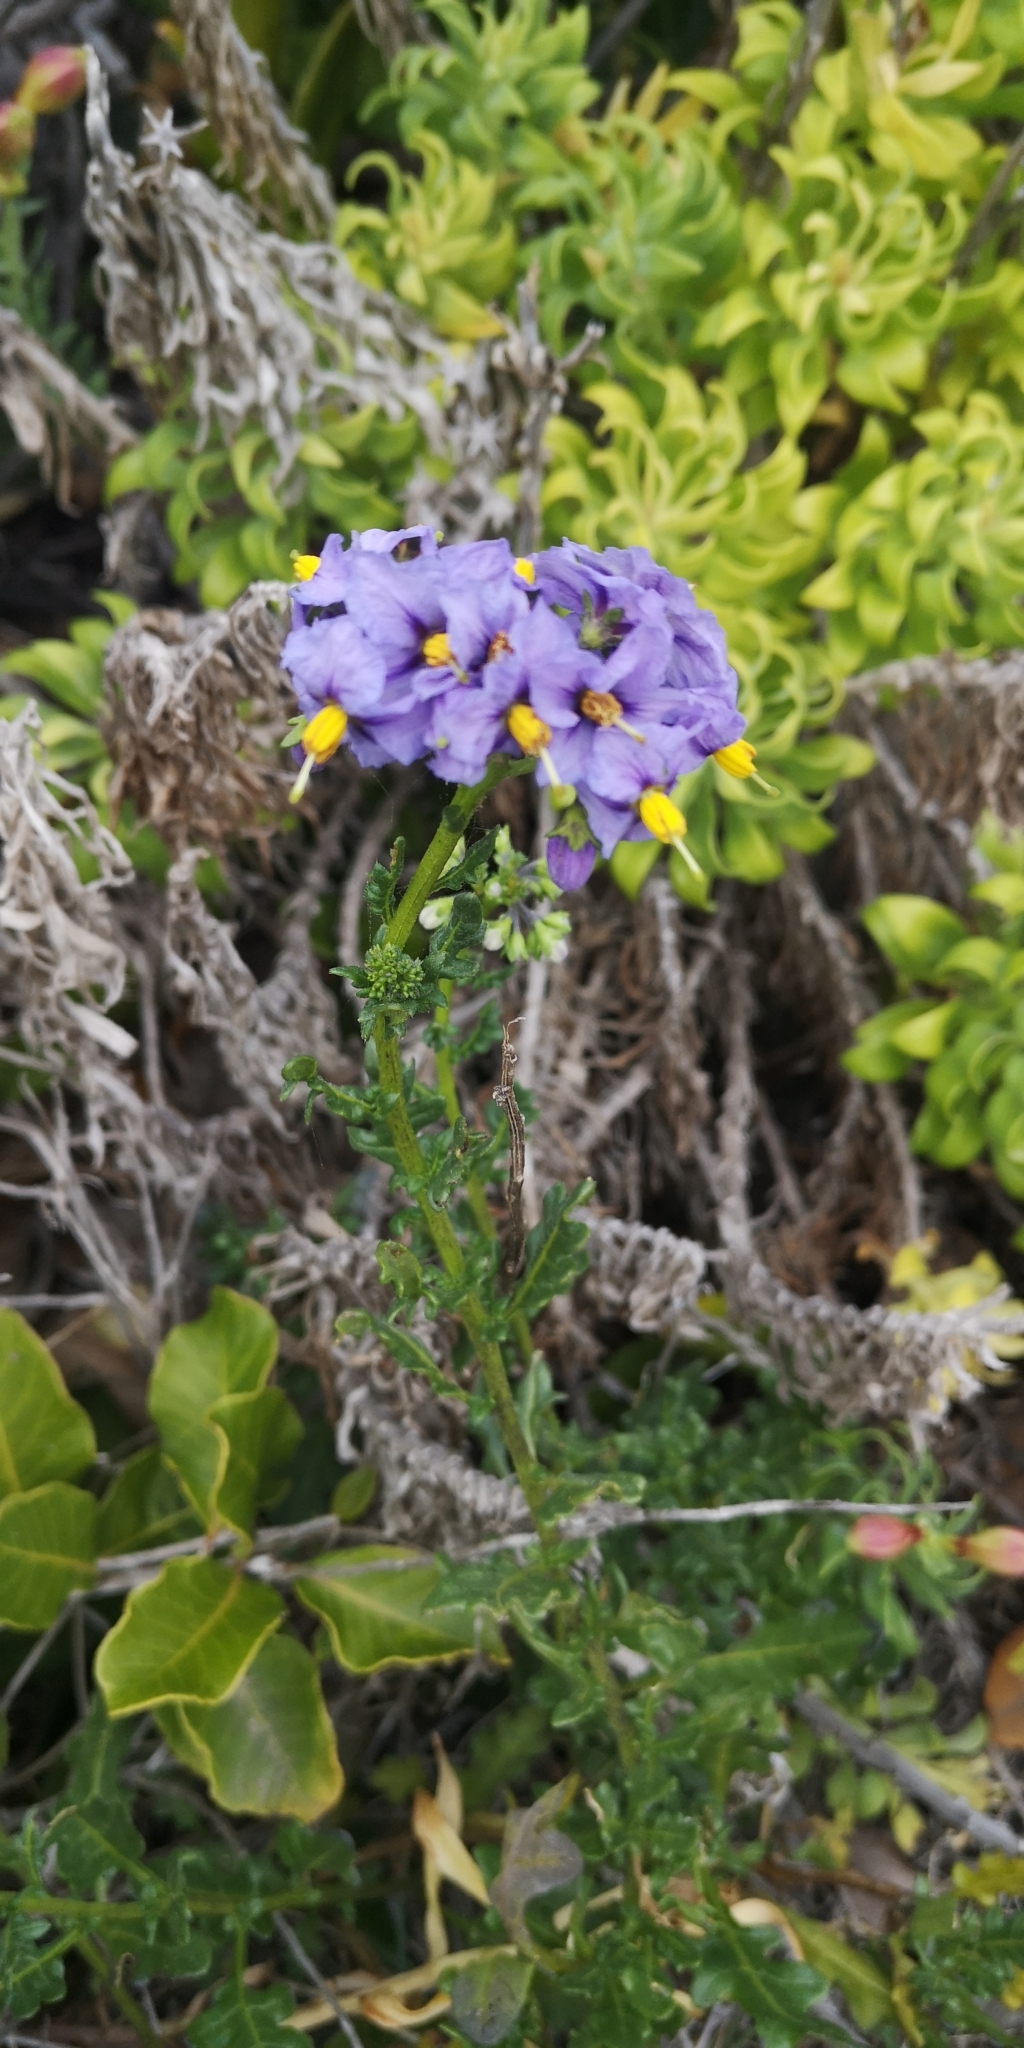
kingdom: Plantae
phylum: Tracheophyta
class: Magnoliopsida
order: Solanales
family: Solanaceae
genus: Solanum
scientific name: Solanum pinnatum
